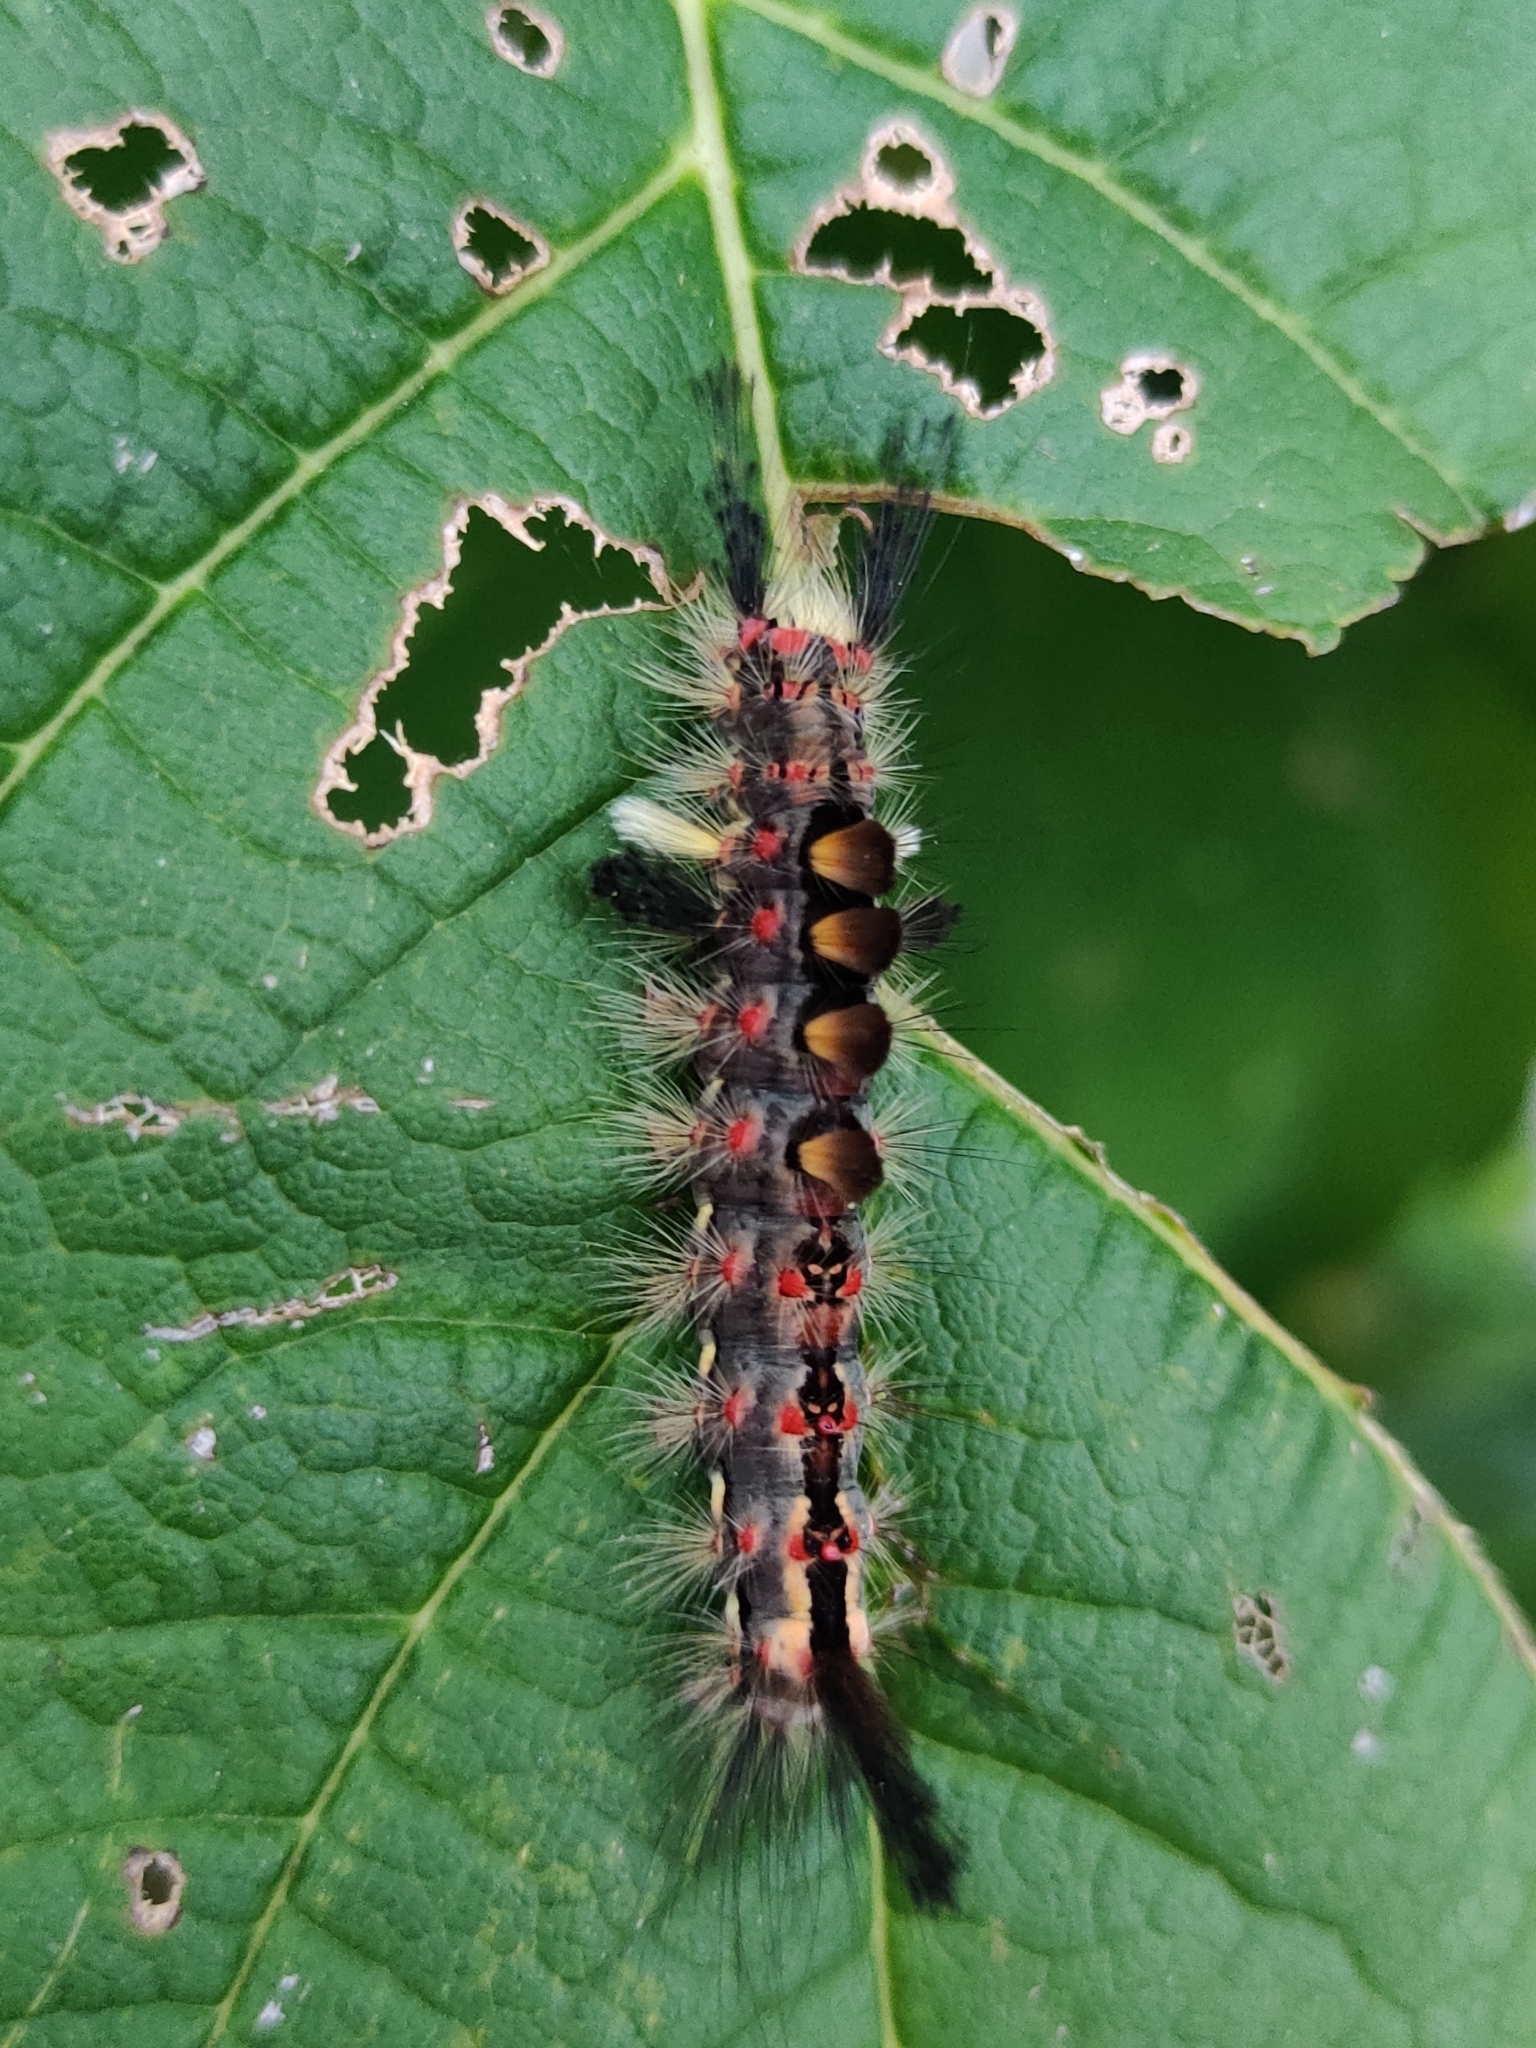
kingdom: Animalia
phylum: Arthropoda
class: Insecta
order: Lepidoptera
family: Erebidae
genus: Orgyia
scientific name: Orgyia antiqua
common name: Vapourer
